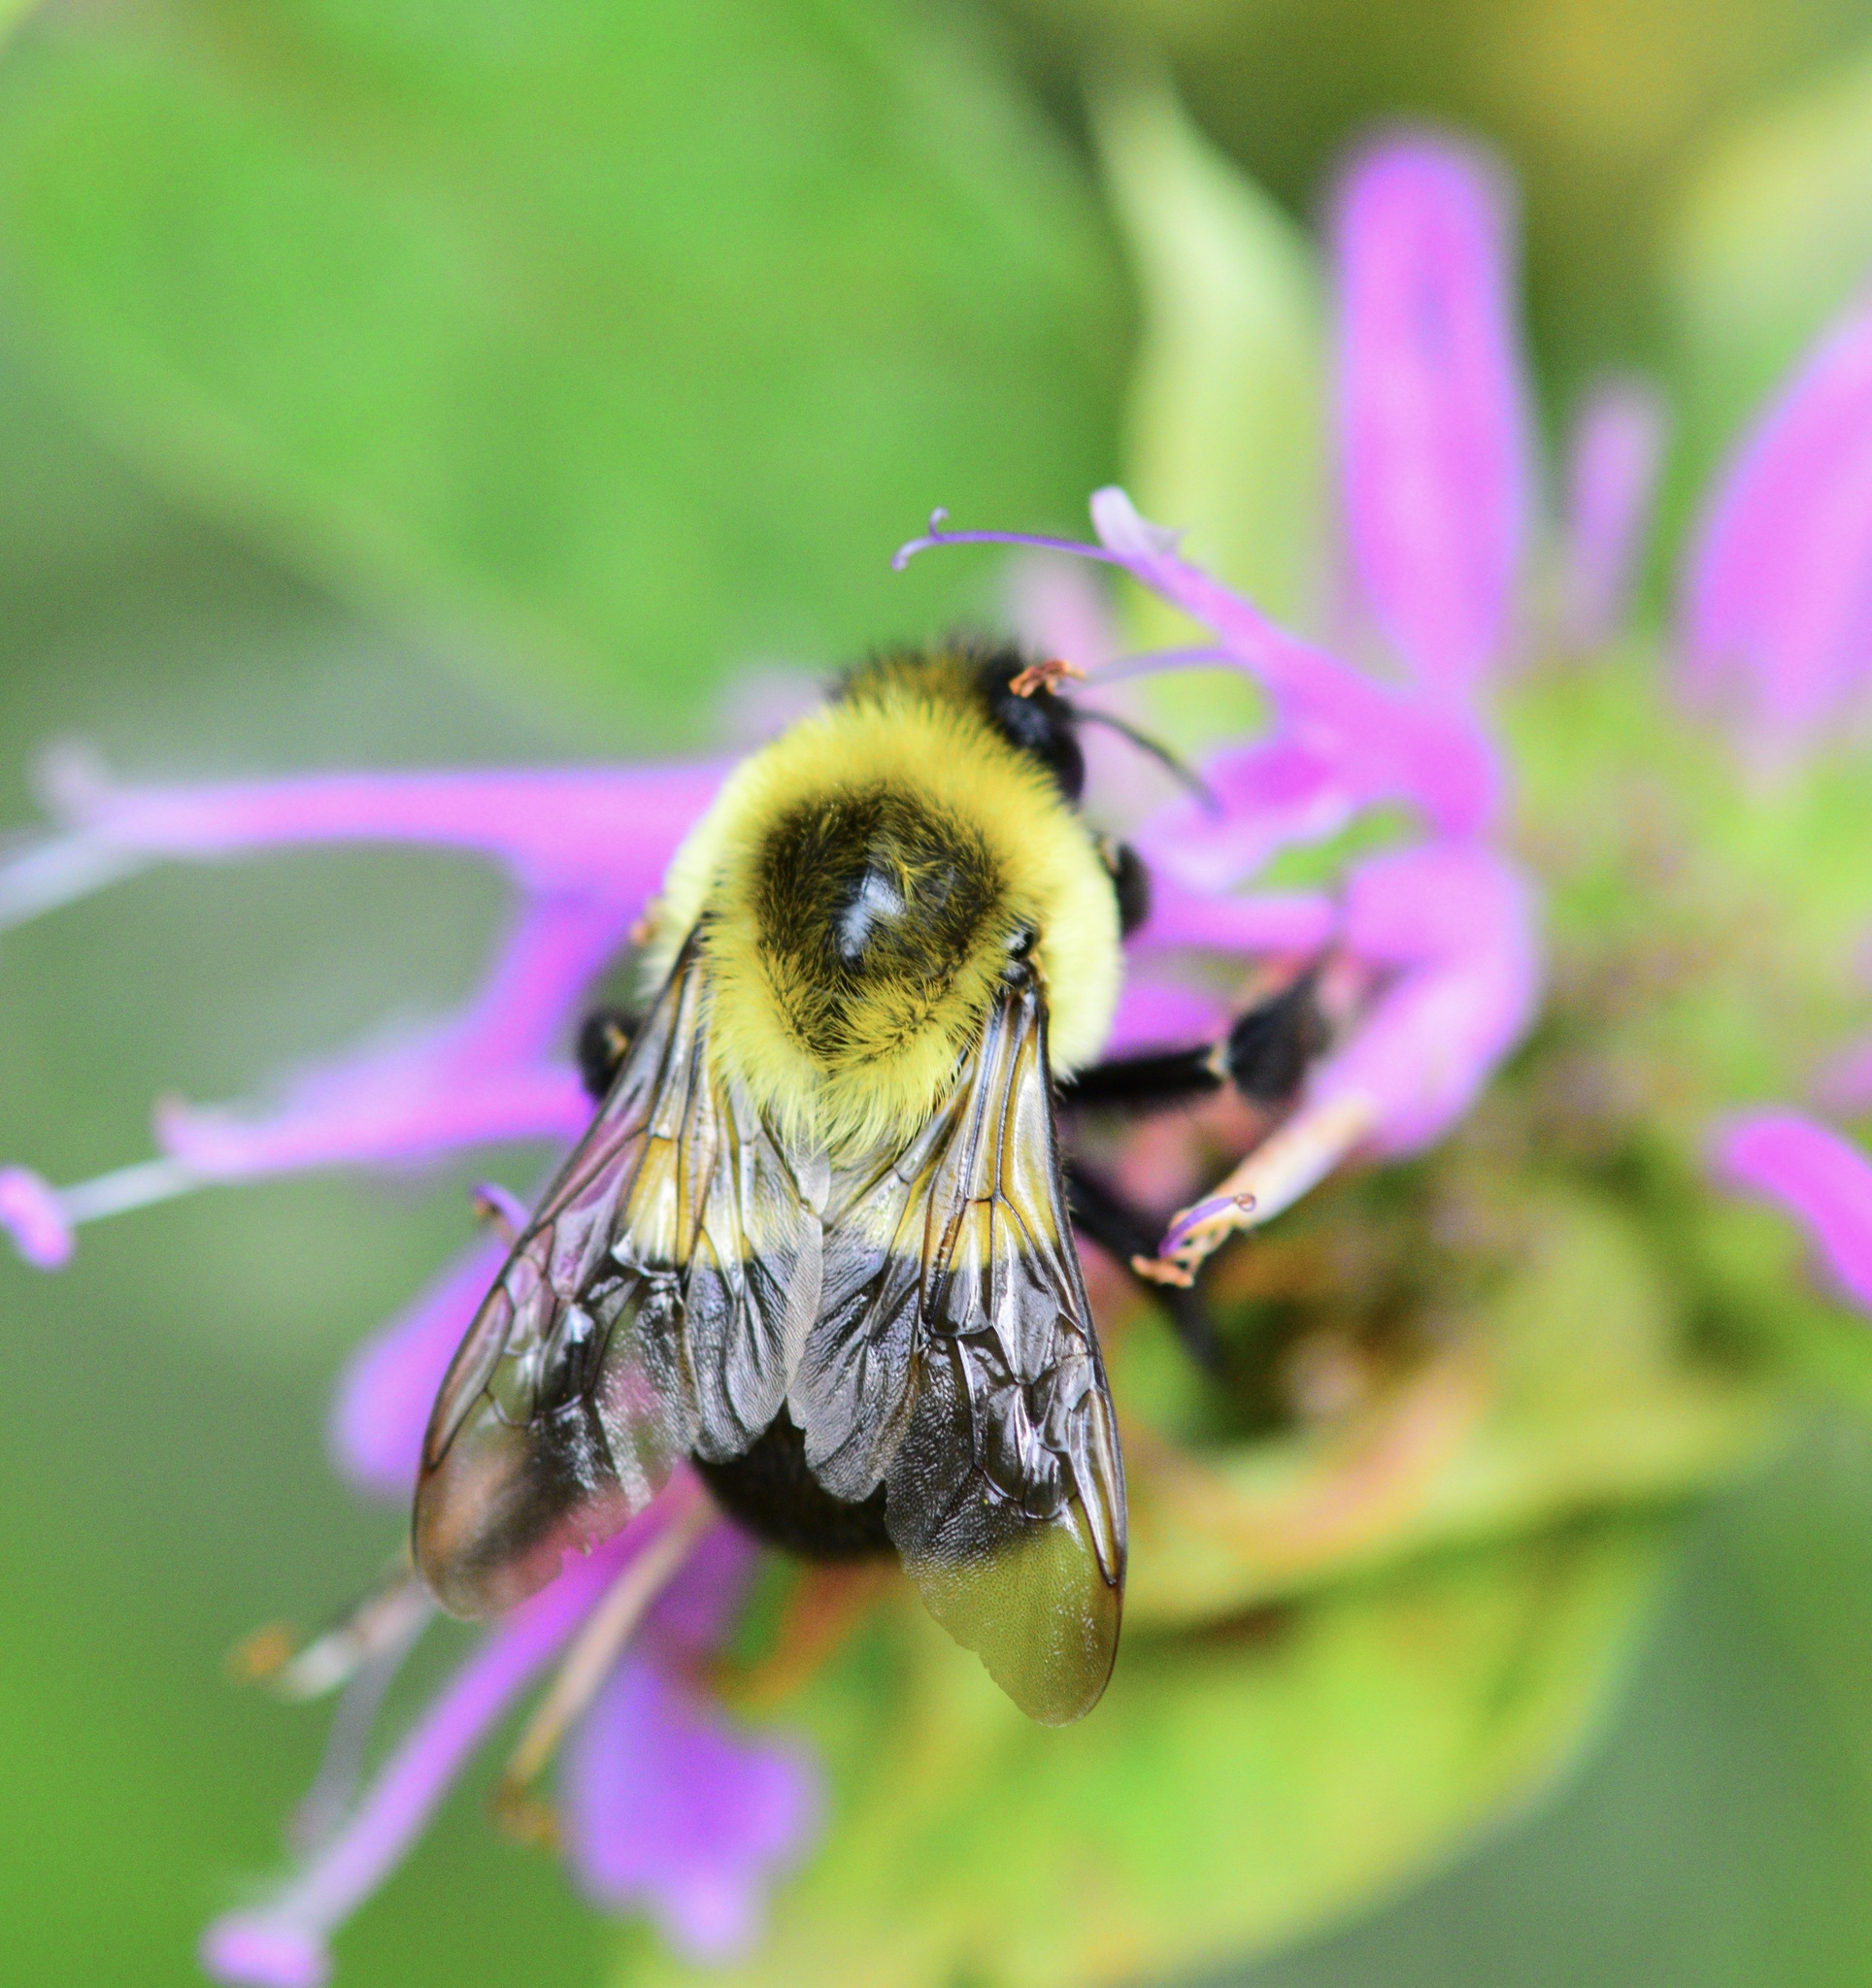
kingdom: Animalia
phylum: Arthropoda
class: Insecta
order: Hymenoptera
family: Apidae
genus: Bombus
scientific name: Bombus impatiens
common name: Common eastern bumble bee
